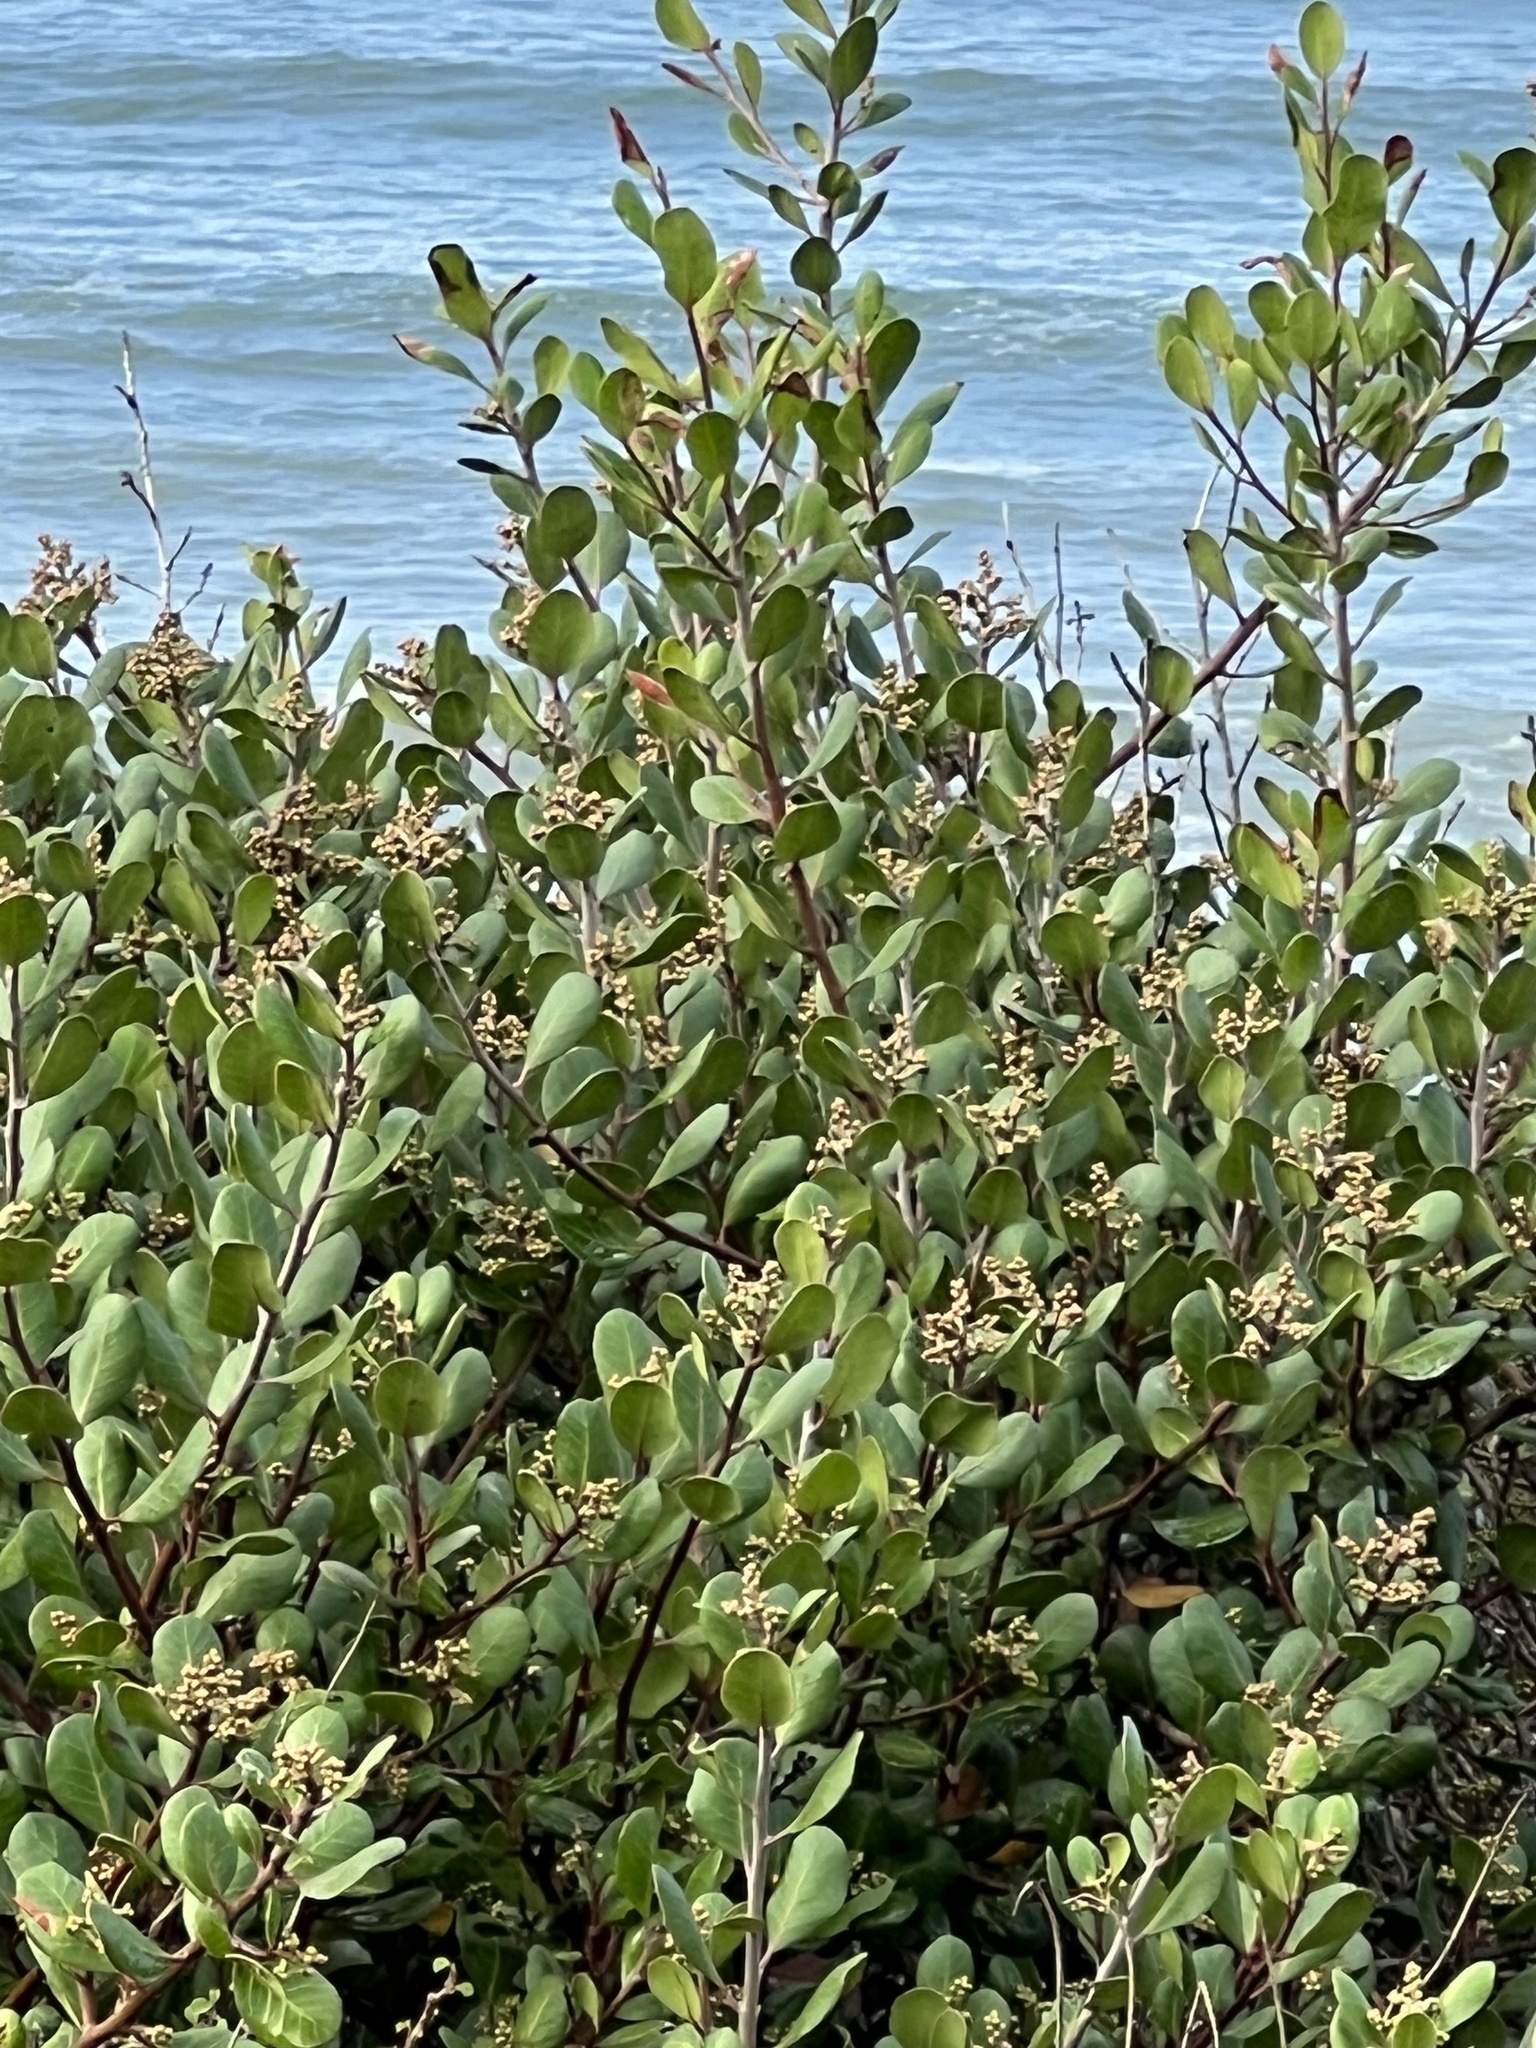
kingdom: Plantae
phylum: Tracheophyta
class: Magnoliopsida
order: Sapindales
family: Anacardiaceae
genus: Rhus
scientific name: Rhus integrifolia
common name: Lemonade sumac
